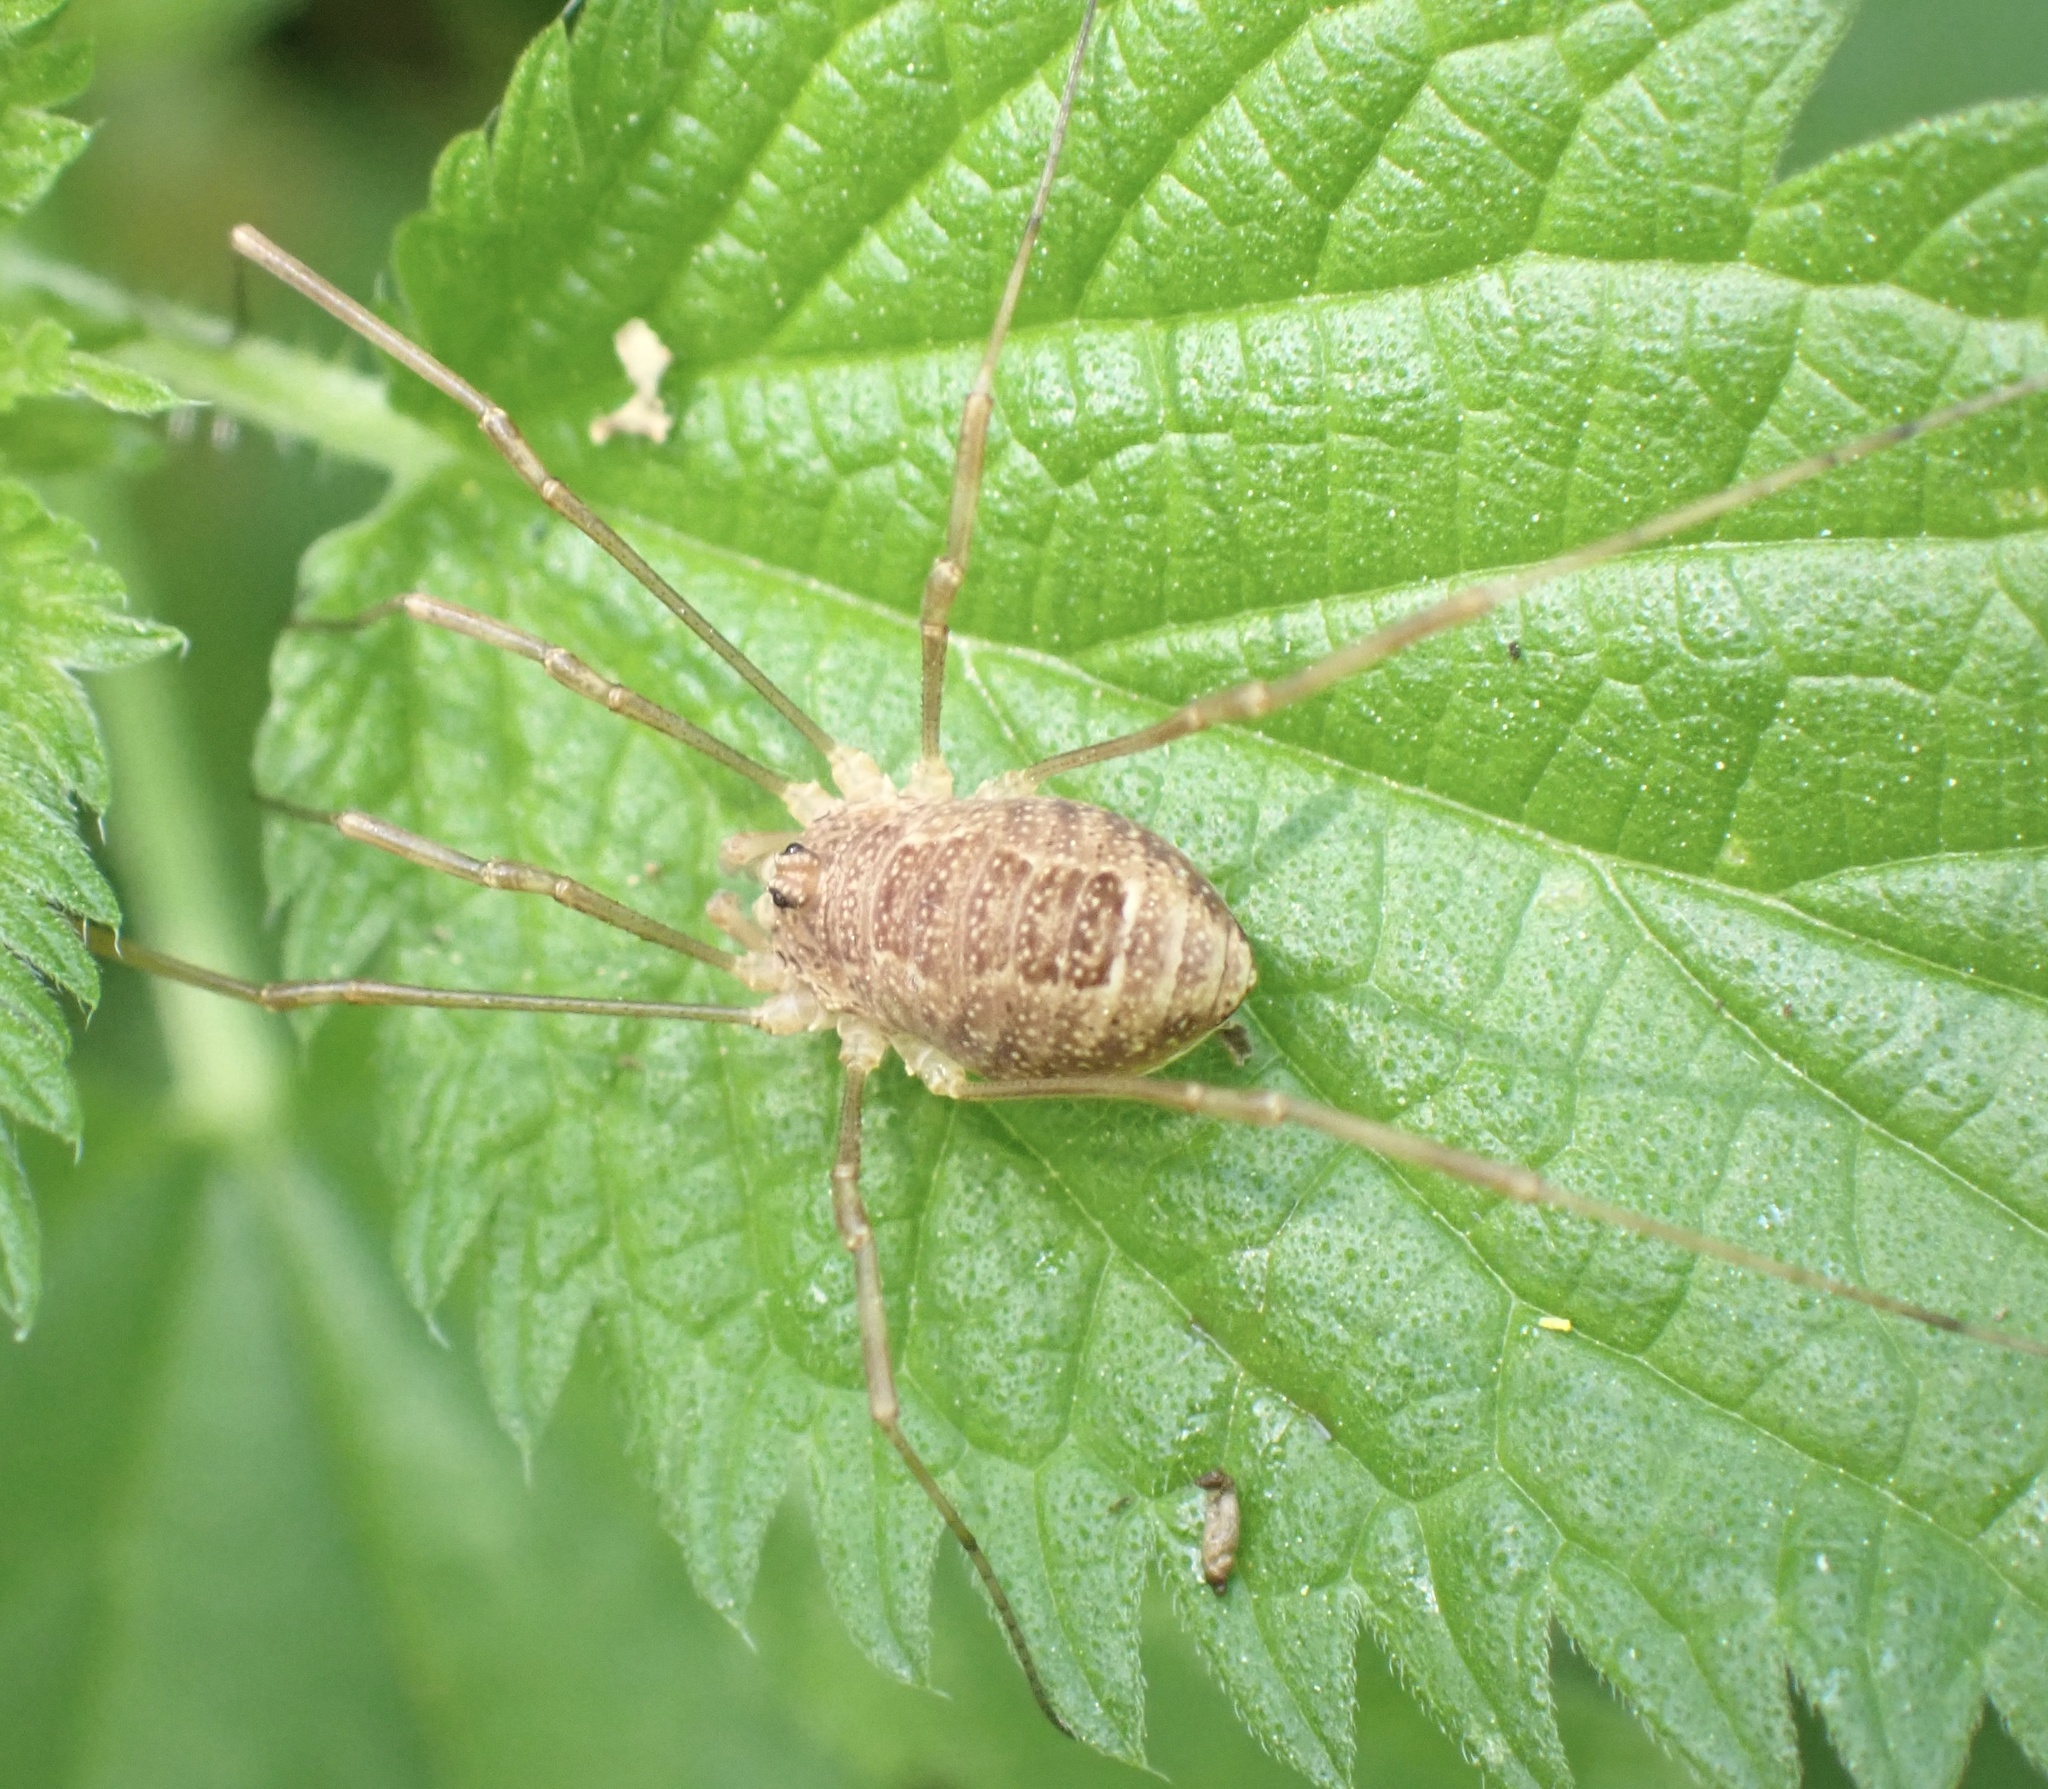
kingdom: Animalia
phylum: Arthropoda
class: Arachnida
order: Opiliones
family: Phalangiidae
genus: Rilaena
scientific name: Rilaena triangularis
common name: Spring harvestman
